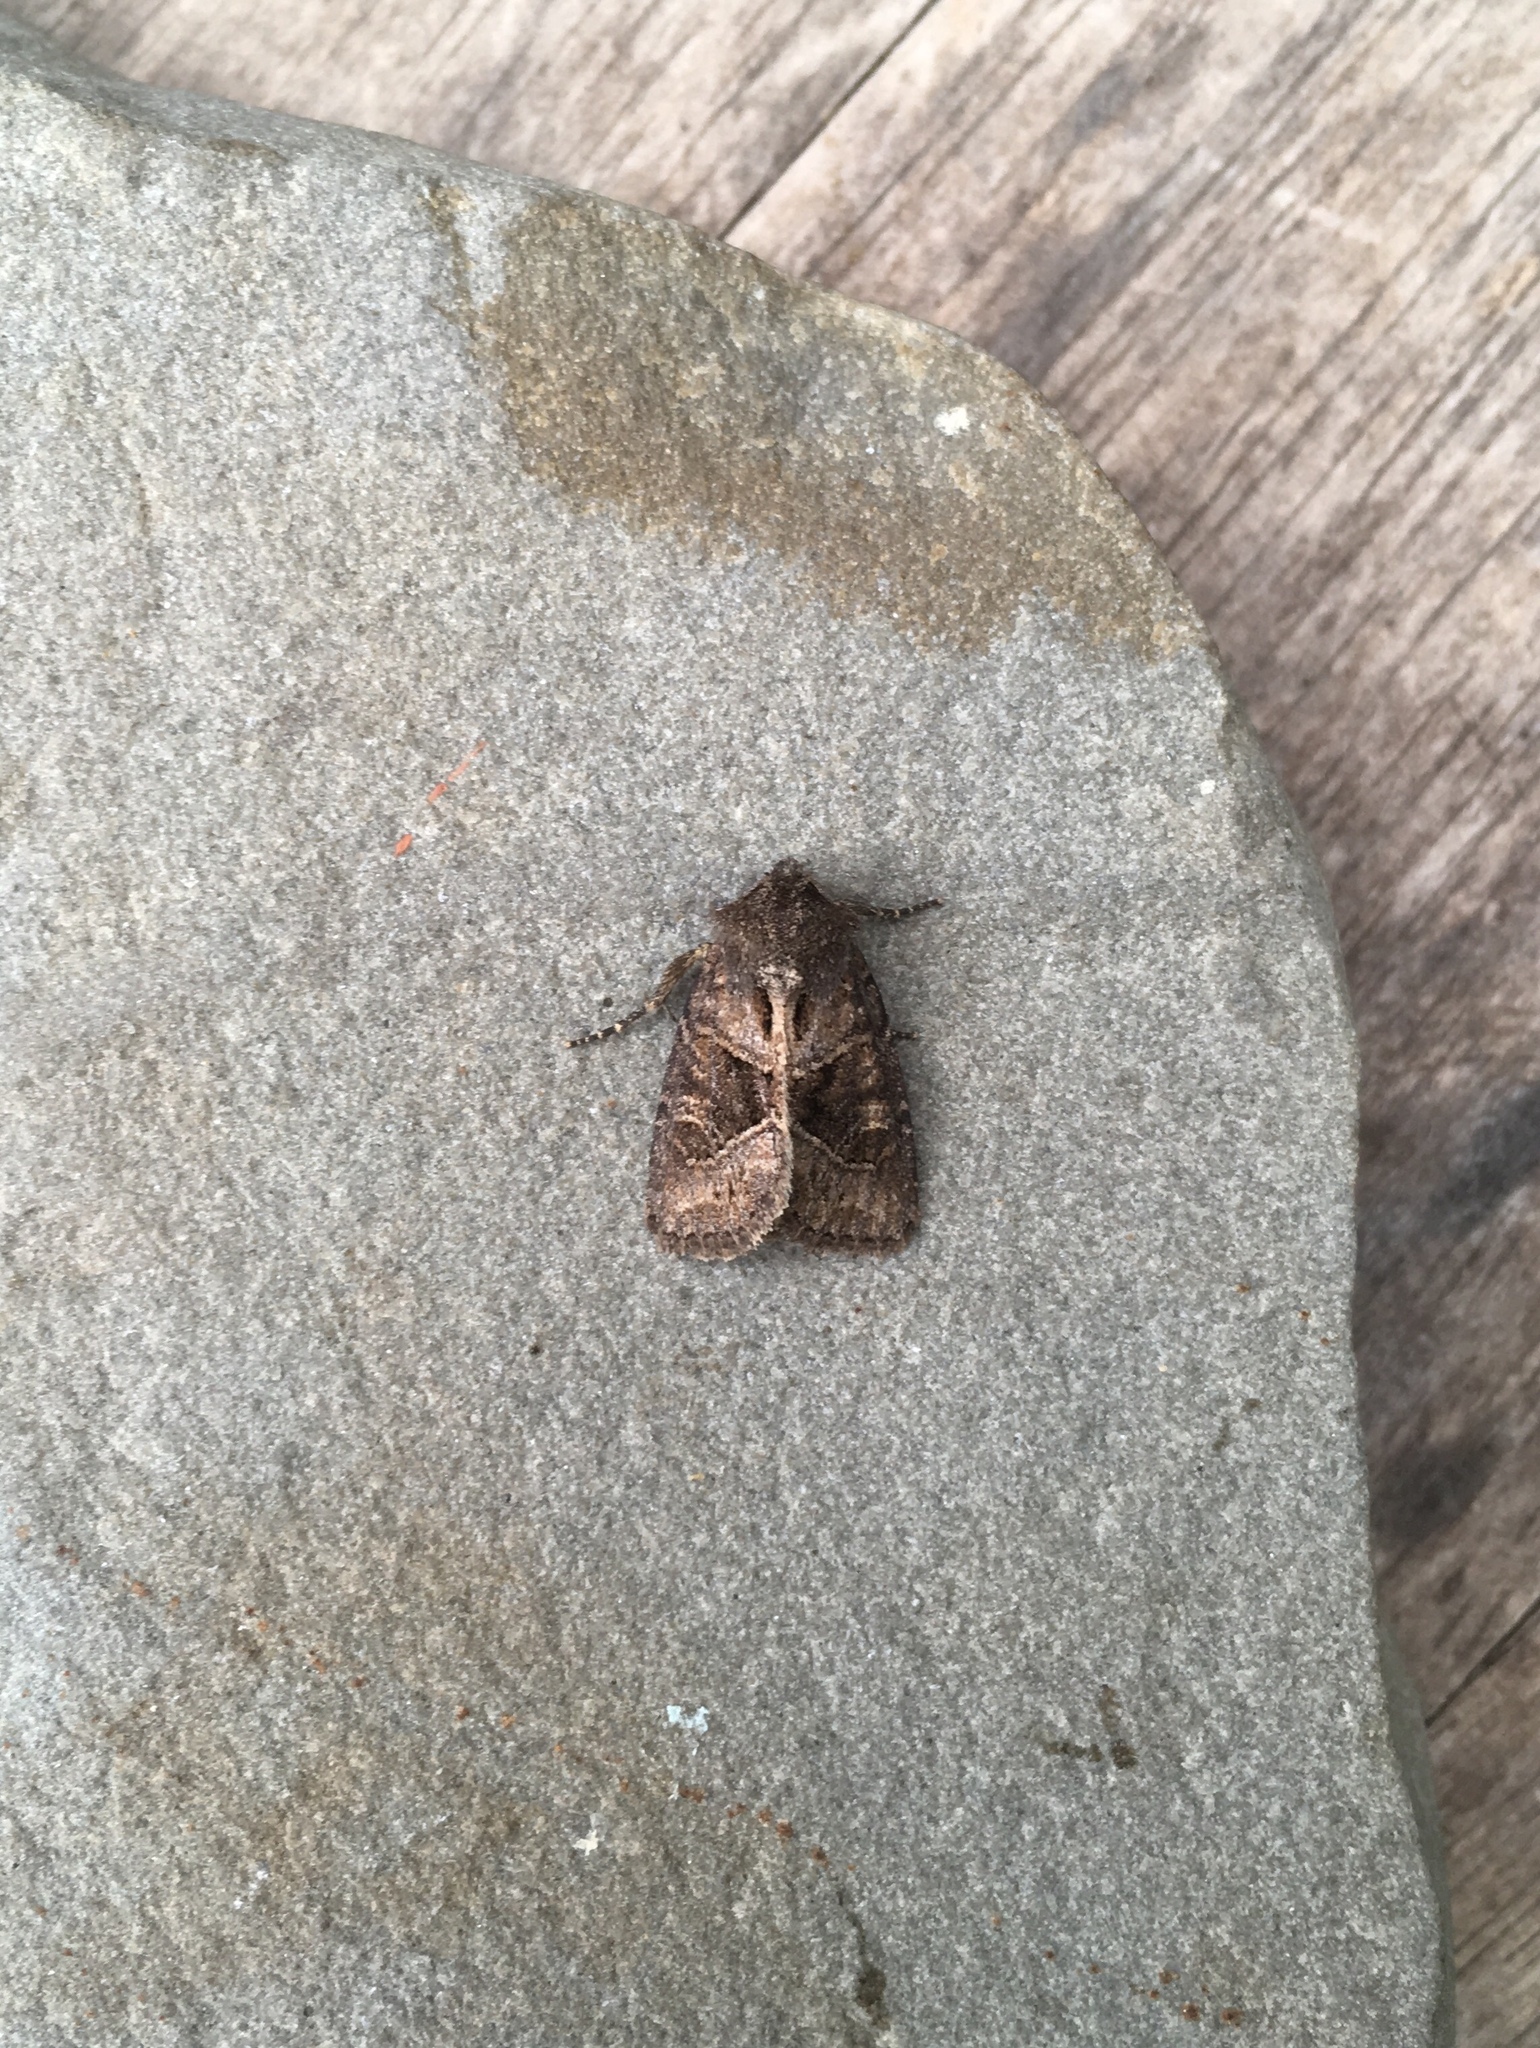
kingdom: Animalia
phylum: Arthropoda
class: Insecta
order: Lepidoptera
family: Noctuidae
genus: Oligia
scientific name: Oligia obtusa
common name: Obtuse sedge borer
